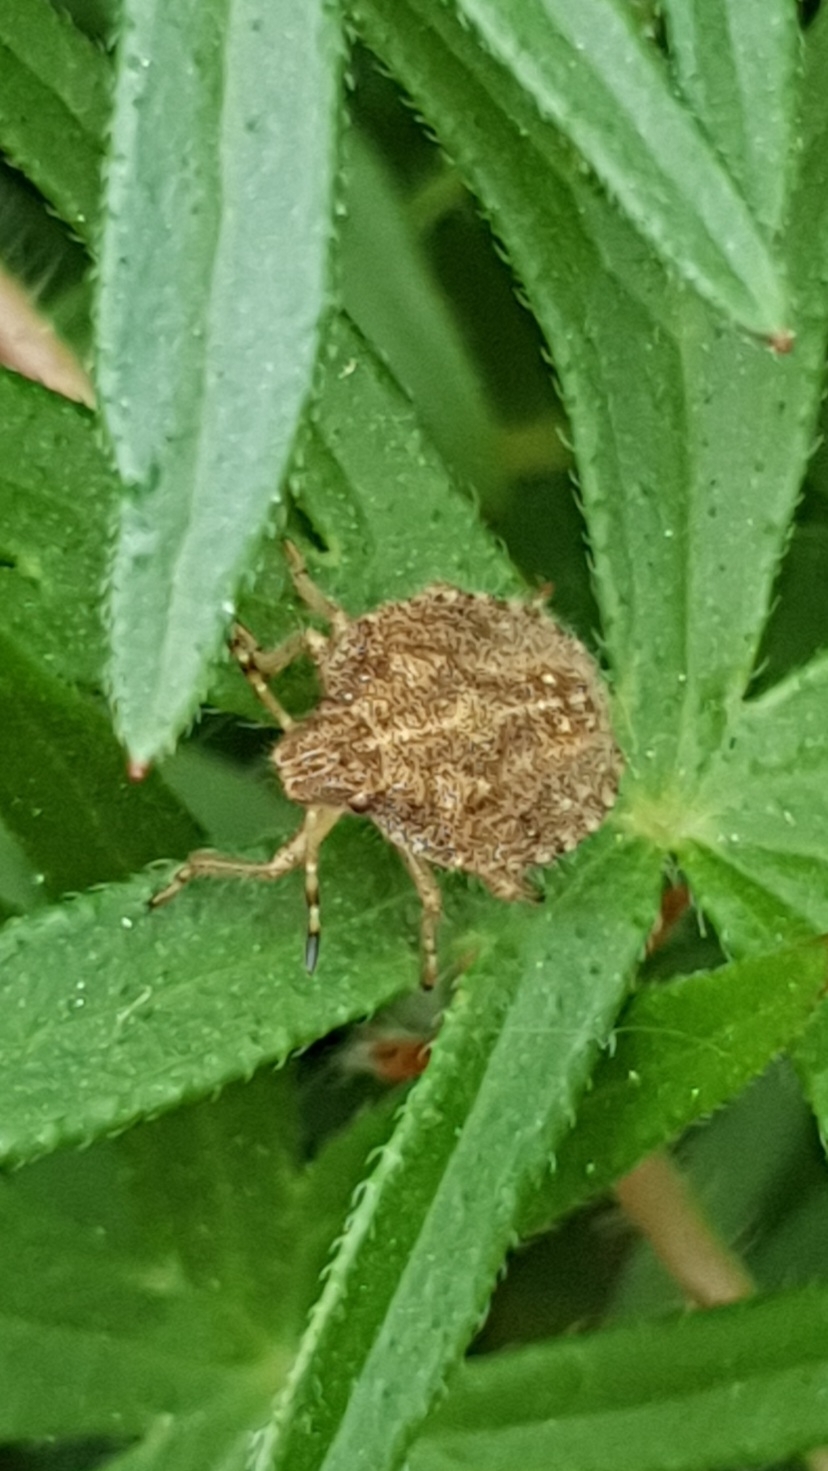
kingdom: Animalia
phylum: Arthropoda
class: Insecta
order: Hemiptera
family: Pentatomidae
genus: Dolycoris
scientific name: Dolycoris baccarum
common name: Sloe bug
